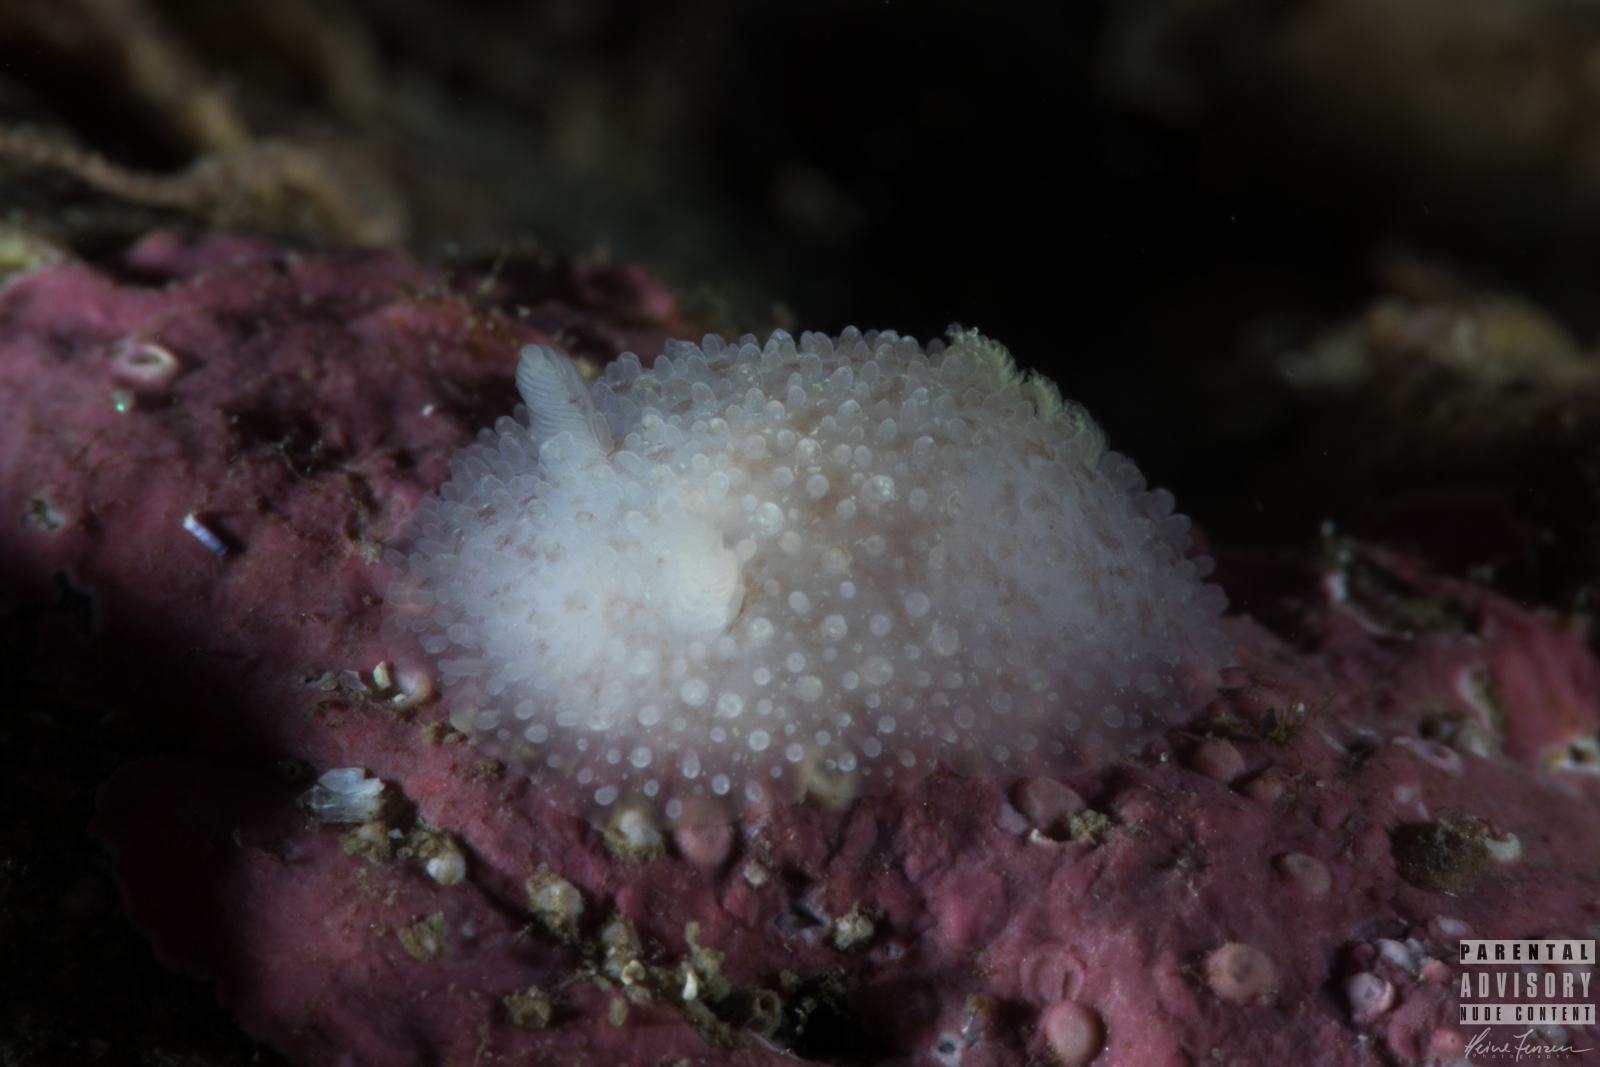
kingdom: Animalia
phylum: Mollusca
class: Gastropoda
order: Nudibranchia
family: Onchidorididae
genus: Acanthodoris
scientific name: Acanthodoris pilosa
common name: Hairy spiny doris
